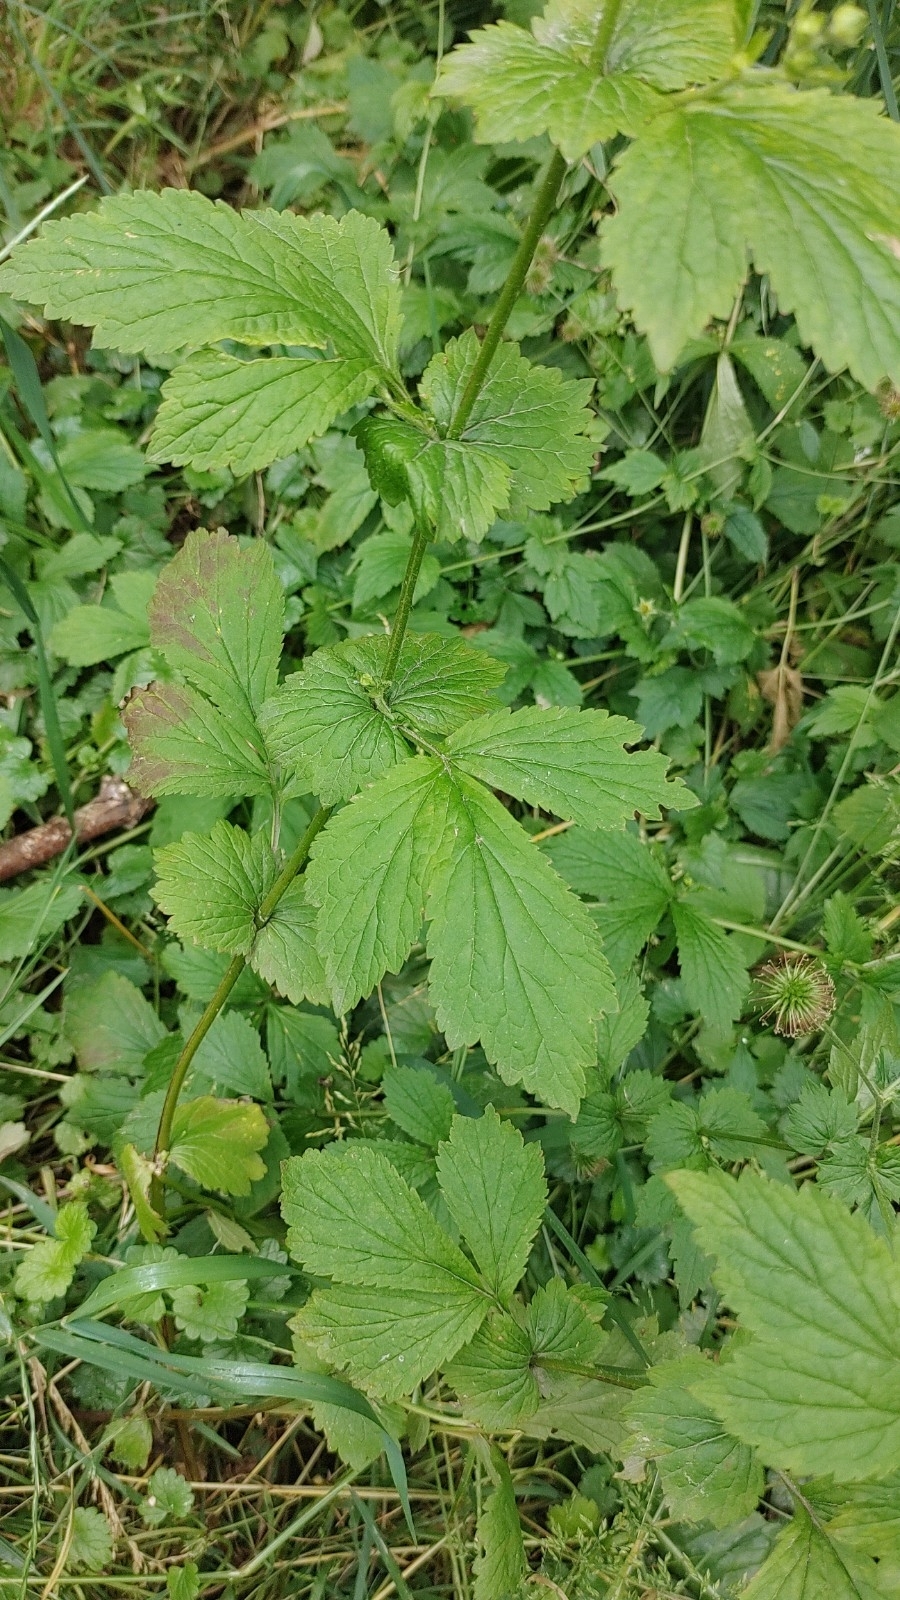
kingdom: Plantae
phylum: Tracheophyta
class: Magnoliopsida
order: Rosales
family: Rosaceae
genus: Geum
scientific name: Geum urbanum
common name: Wood avens
